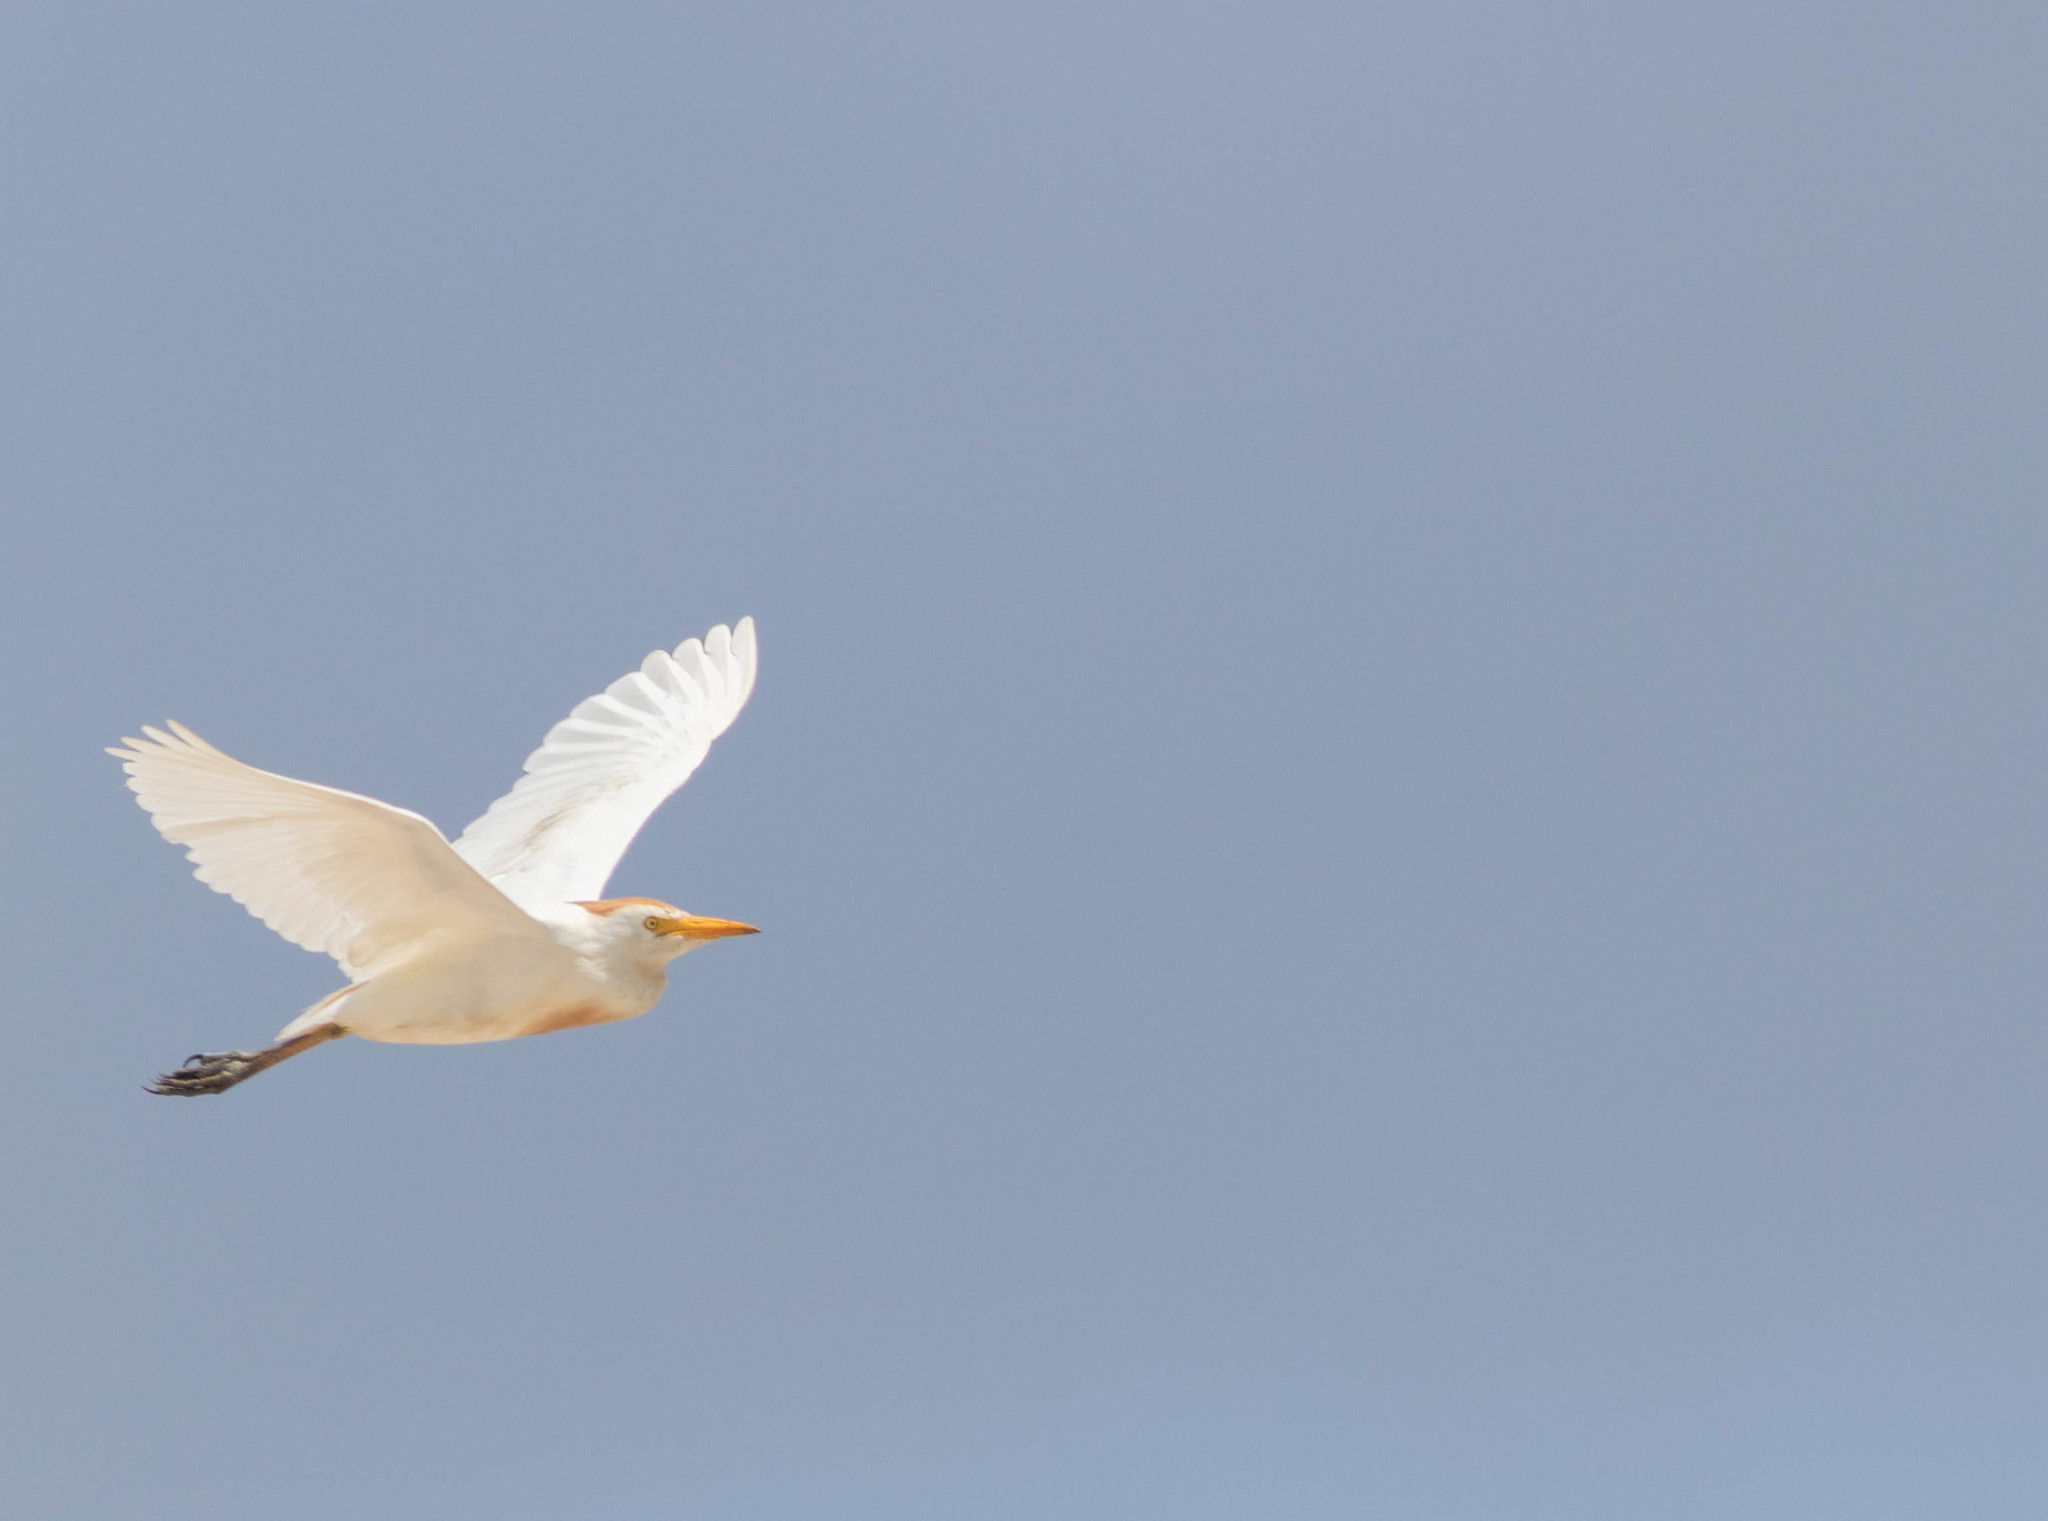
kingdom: Animalia
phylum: Chordata
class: Aves
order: Pelecaniformes
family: Ardeidae
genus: Bubulcus
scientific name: Bubulcus ibis
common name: Cattle egret
